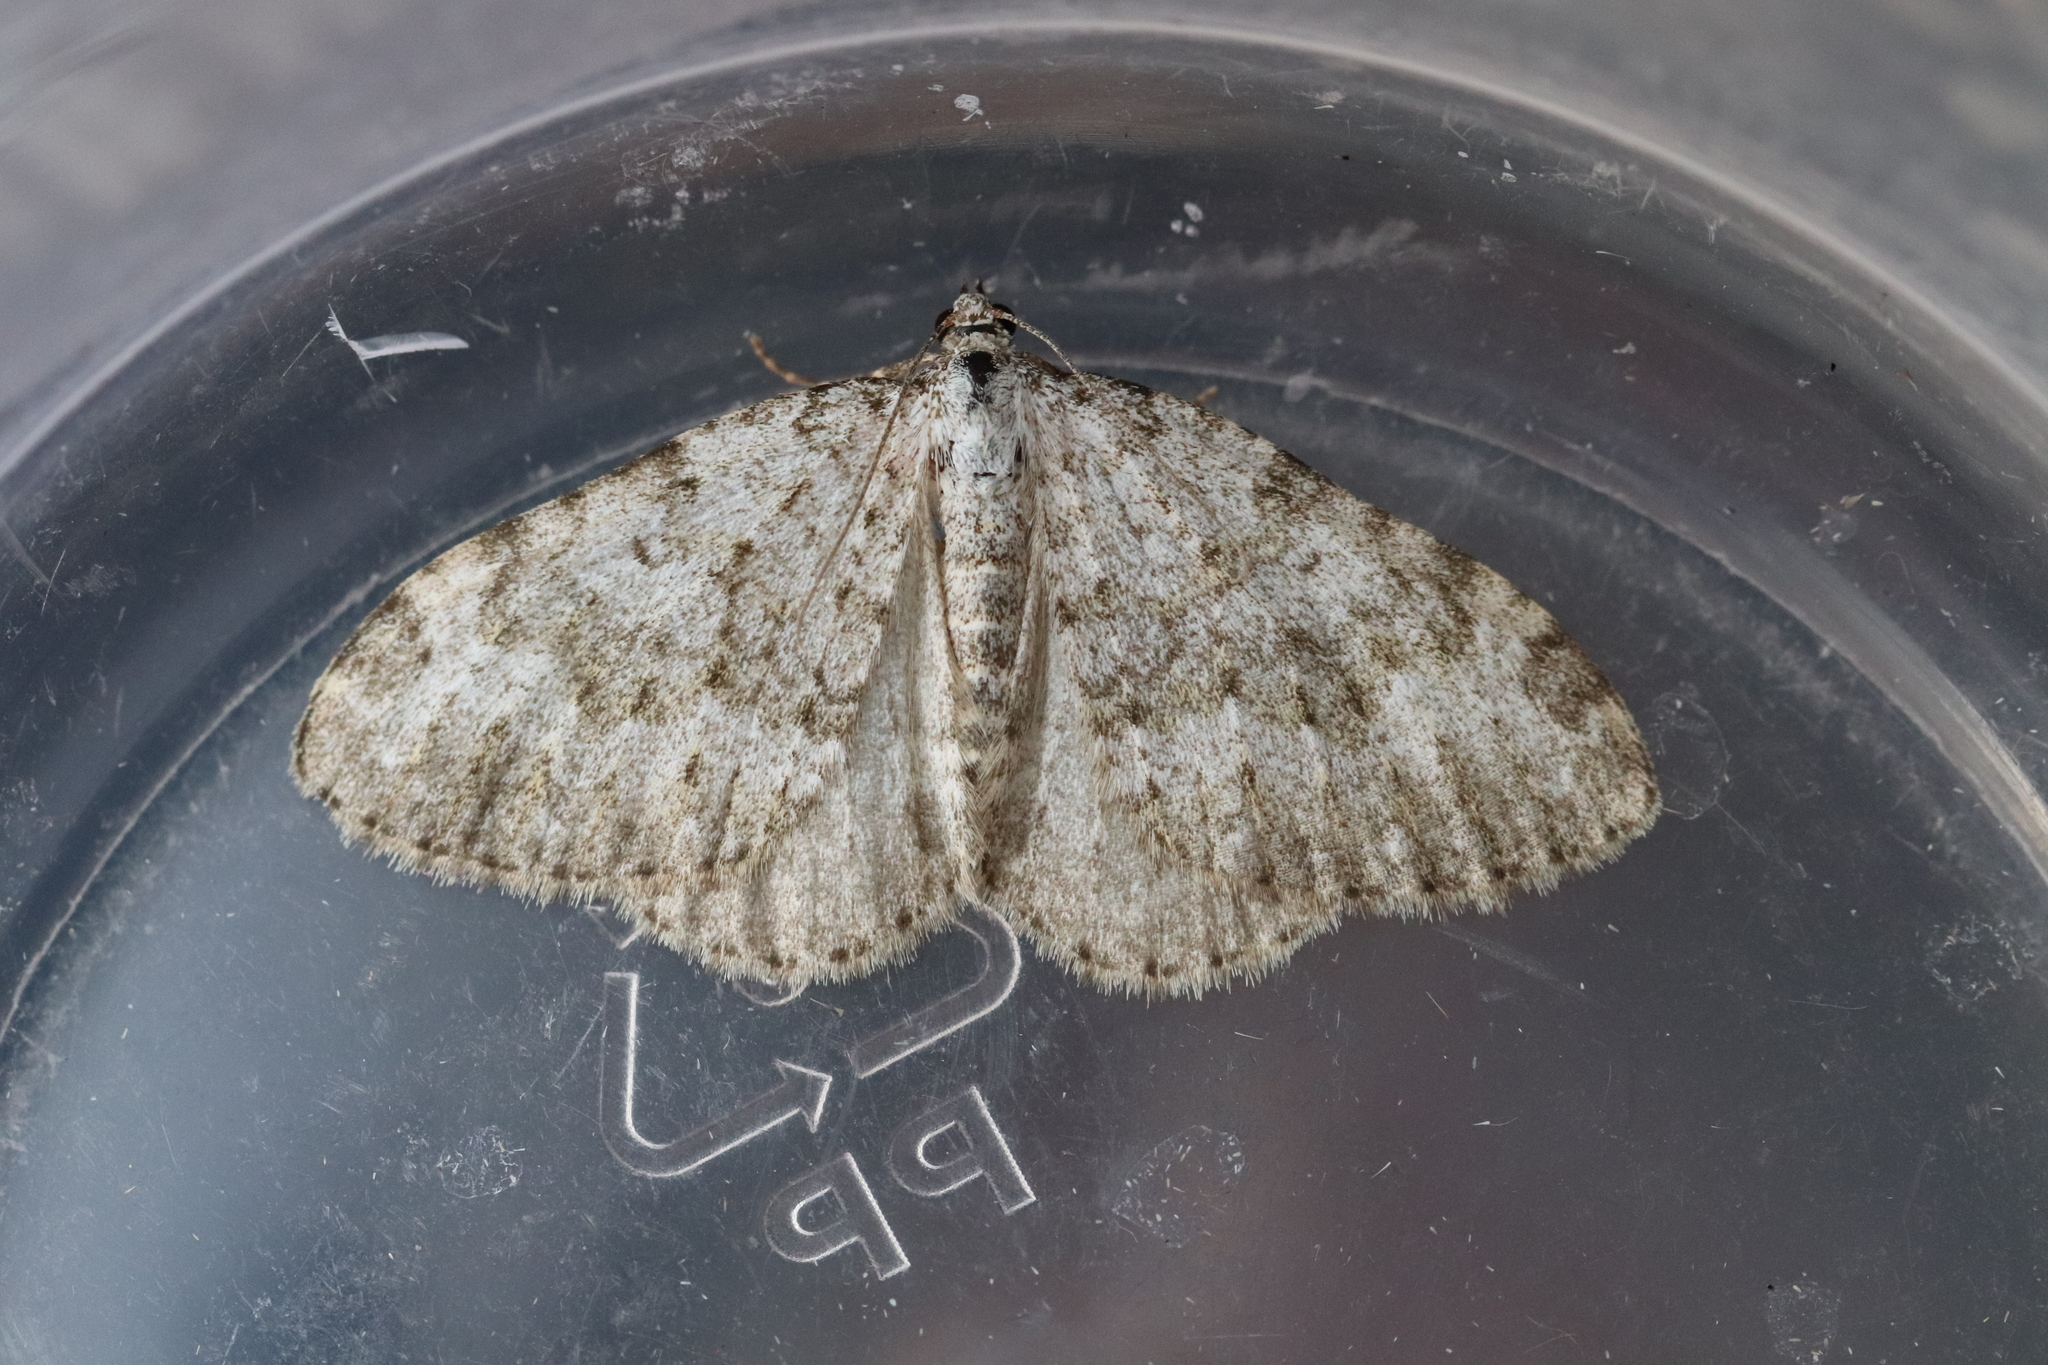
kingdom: Animalia
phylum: Arthropoda
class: Insecta
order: Lepidoptera
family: Geometridae
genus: Nebula
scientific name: Nebula salicata
